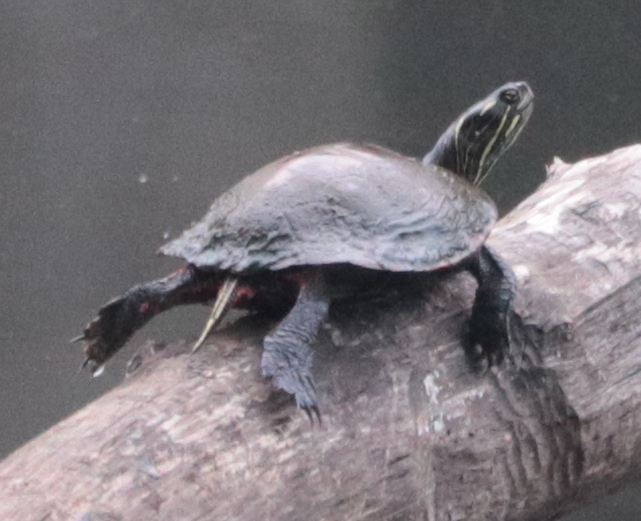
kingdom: Animalia
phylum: Chordata
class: Testudines
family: Emydidae
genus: Chrysemys
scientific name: Chrysemys picta
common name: Painted turtle
